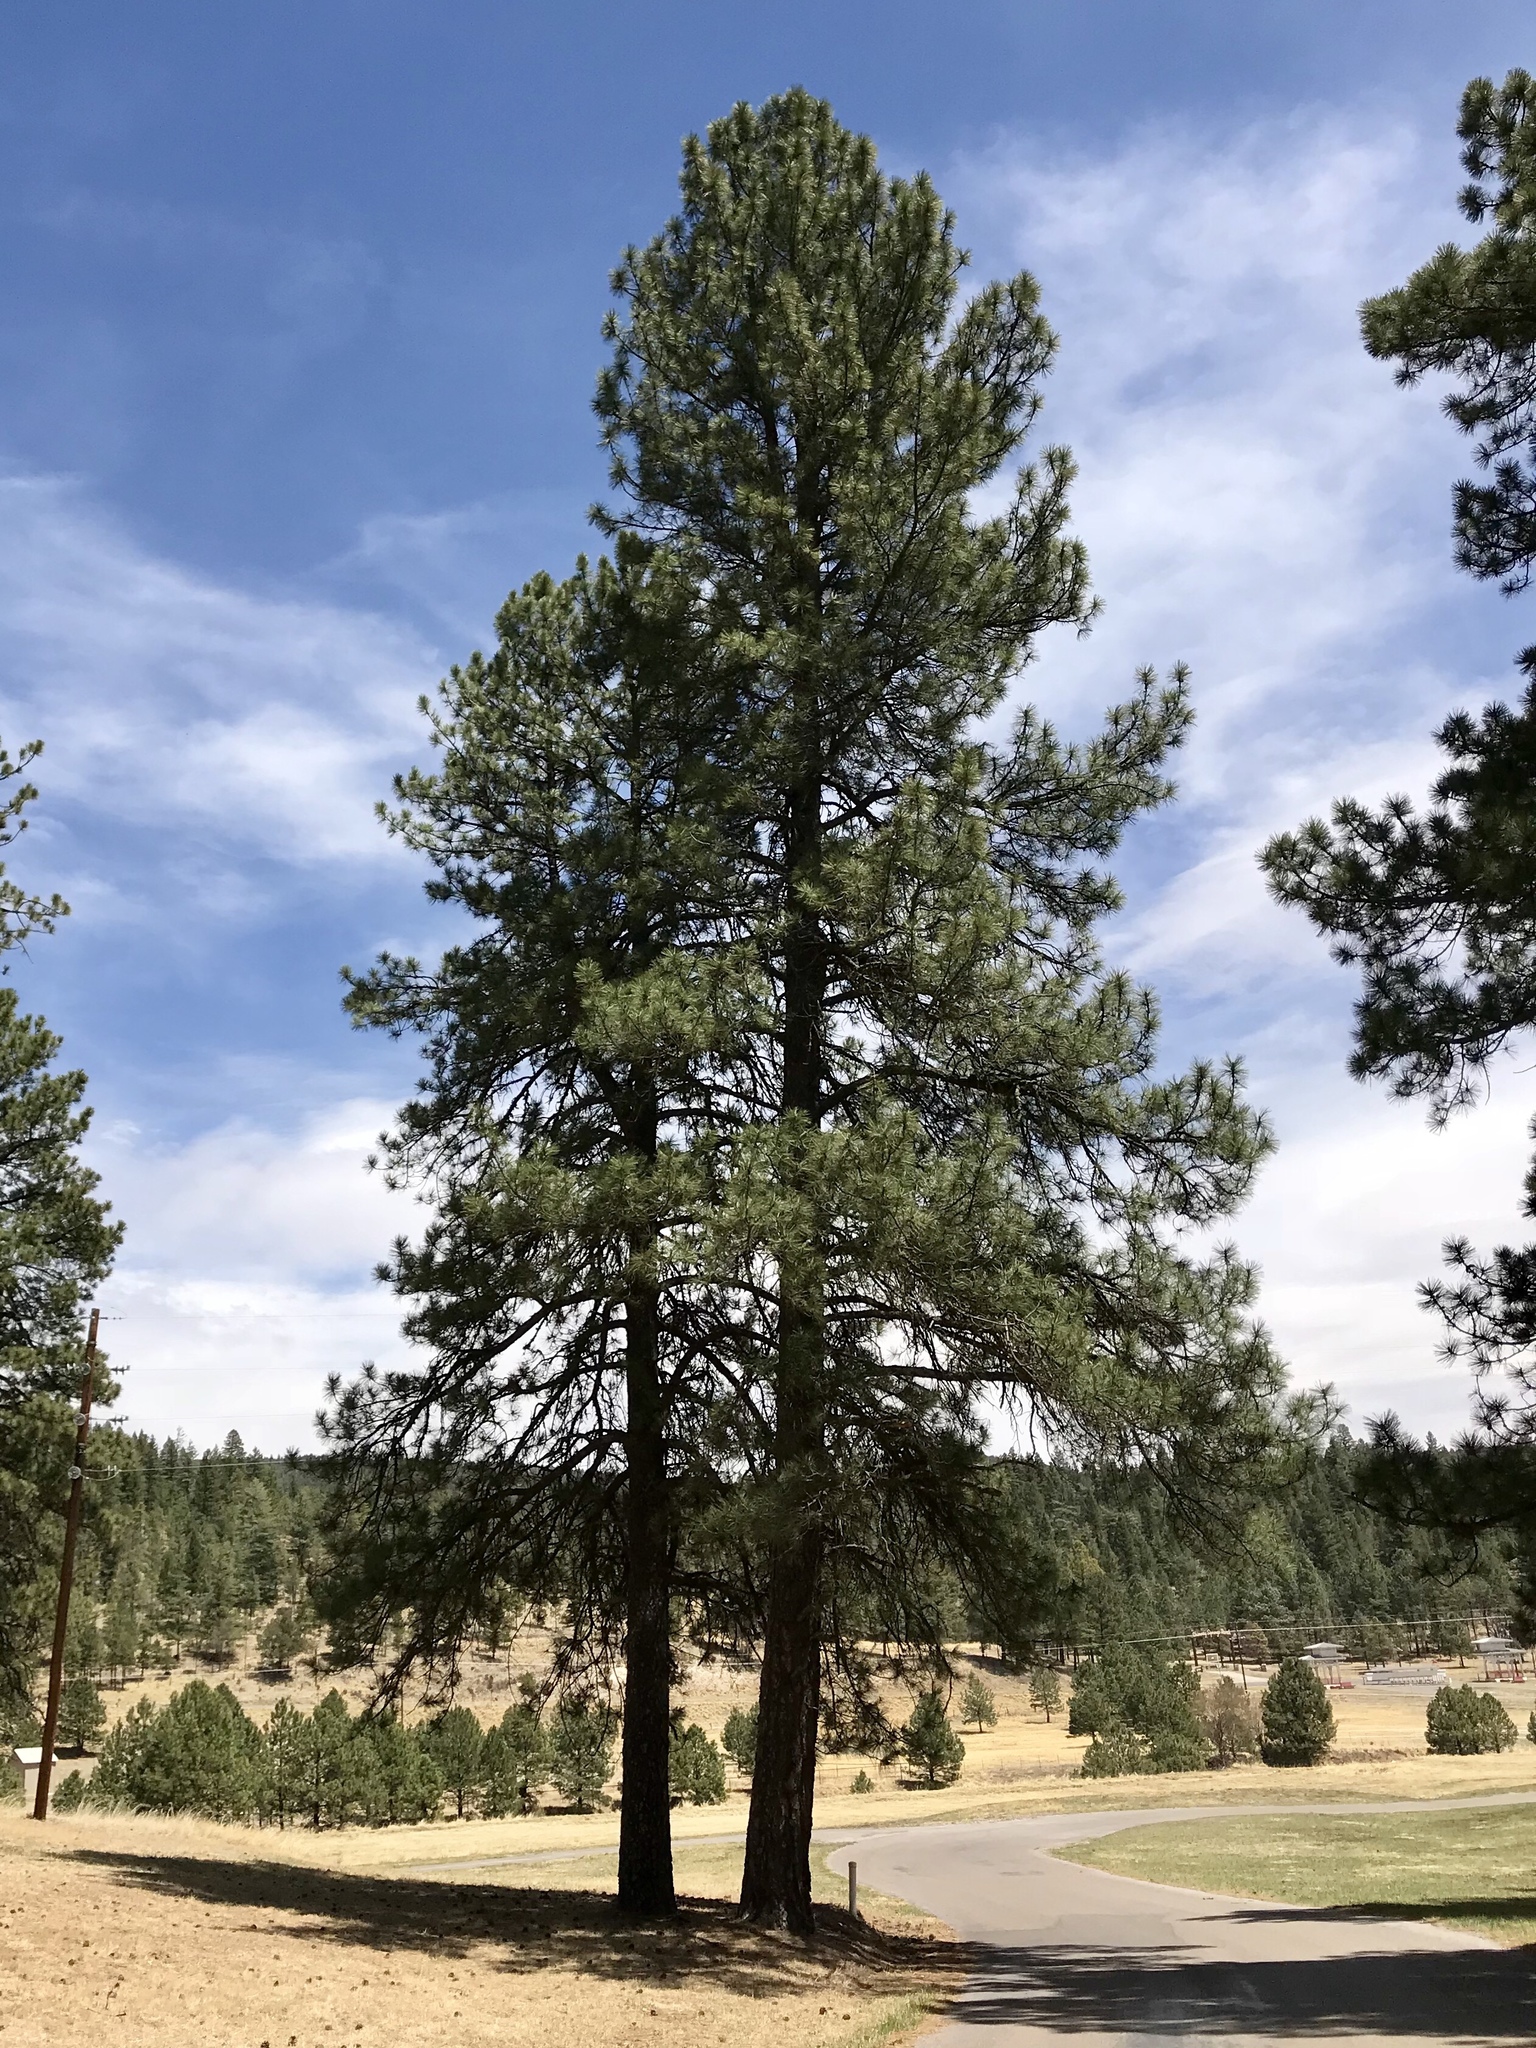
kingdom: Plantae
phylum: Tracheophyta
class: Pinopsida
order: Pinales
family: Pinaceae
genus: Pinus
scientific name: Pinus ponderosa
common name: Western yellow-pine
